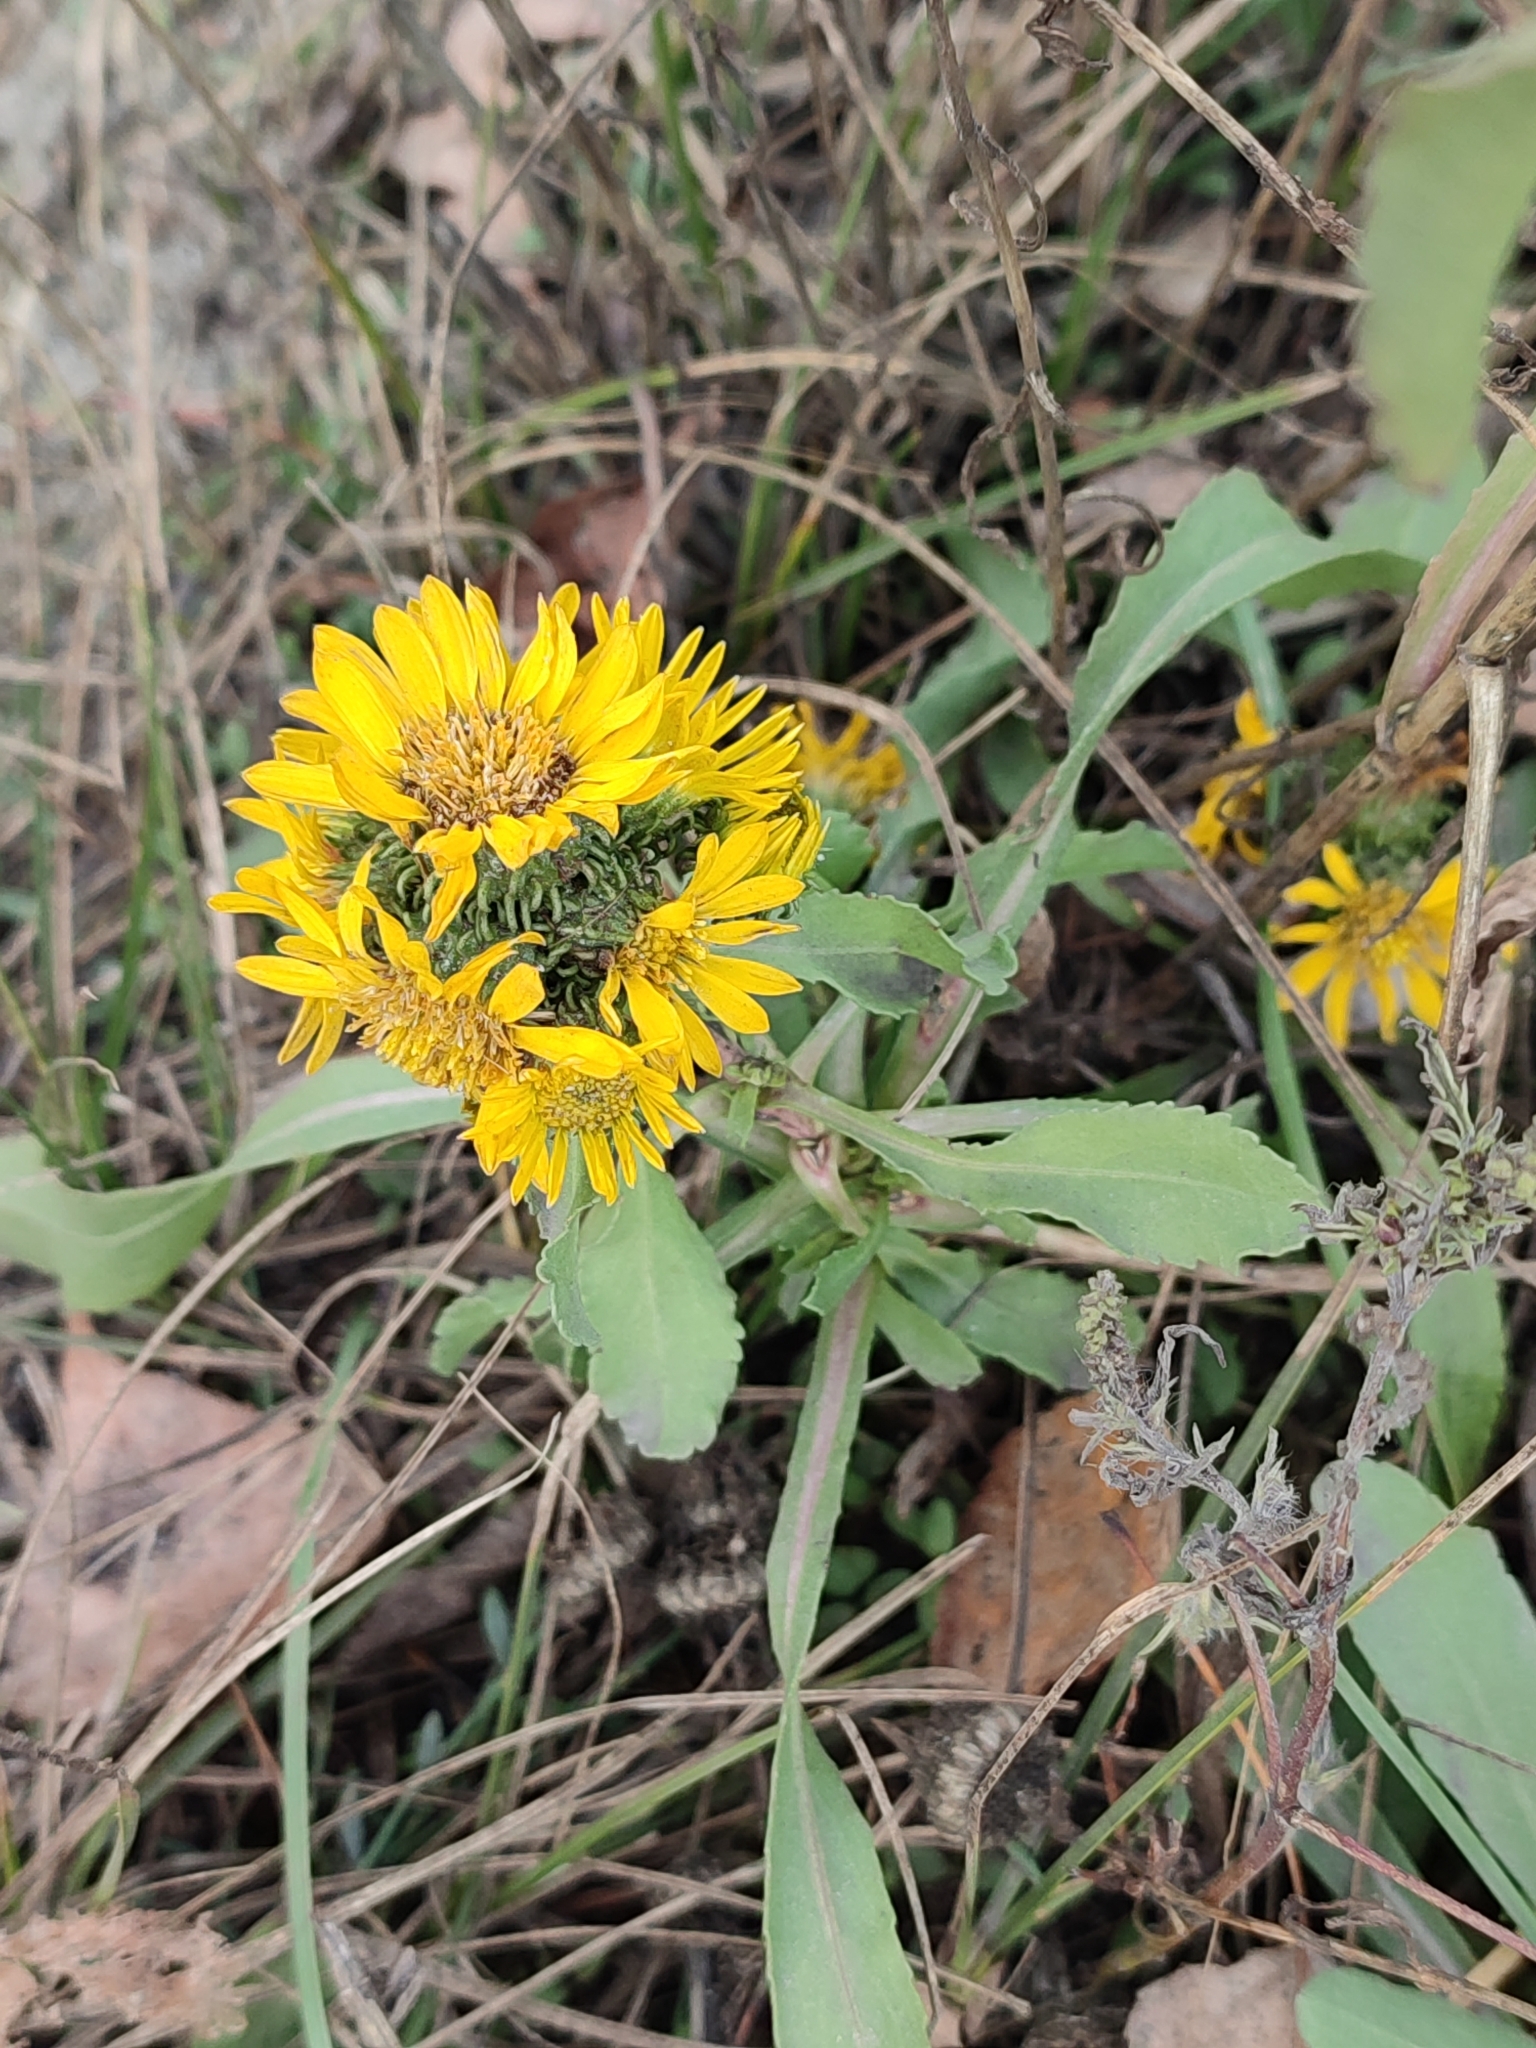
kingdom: Plantae
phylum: Tracheophyta
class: Magnoliopsida
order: Asterales
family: Asteraceae
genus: Grindelia
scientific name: Grindelia squarrosa
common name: Curly-cup gumweed
